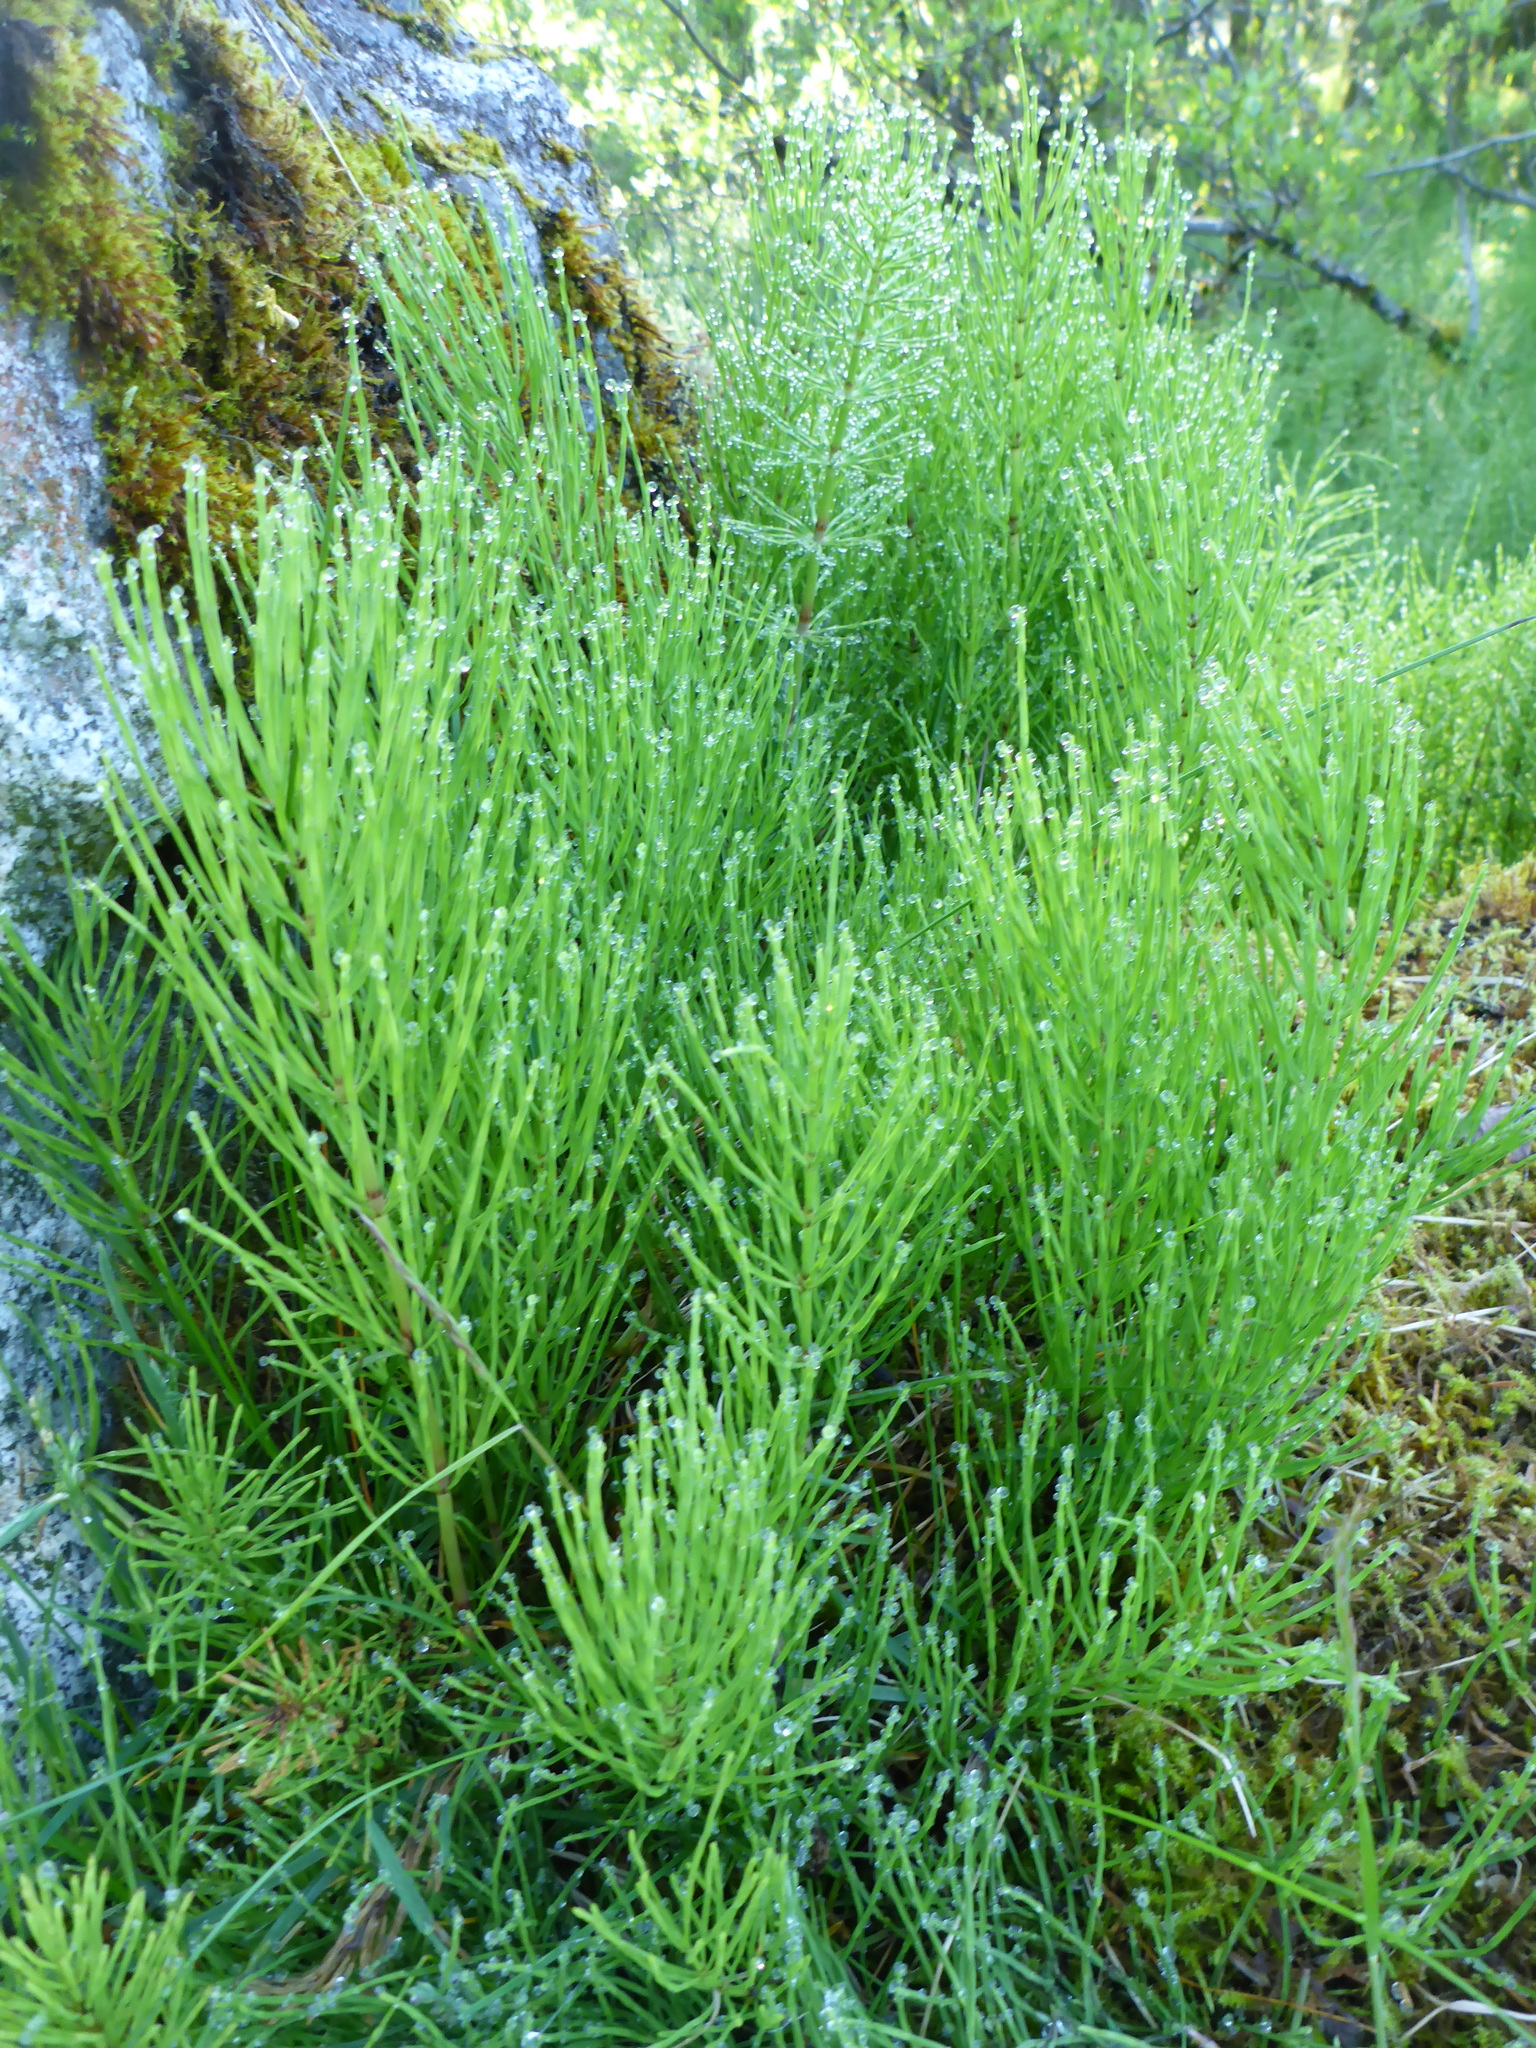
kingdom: Plantae
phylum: Tracheophyta
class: Polypodiopsida
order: Equisetales
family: Equisetaceae
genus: Equisetum
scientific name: Equisetum arvense
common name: Field horsetail
